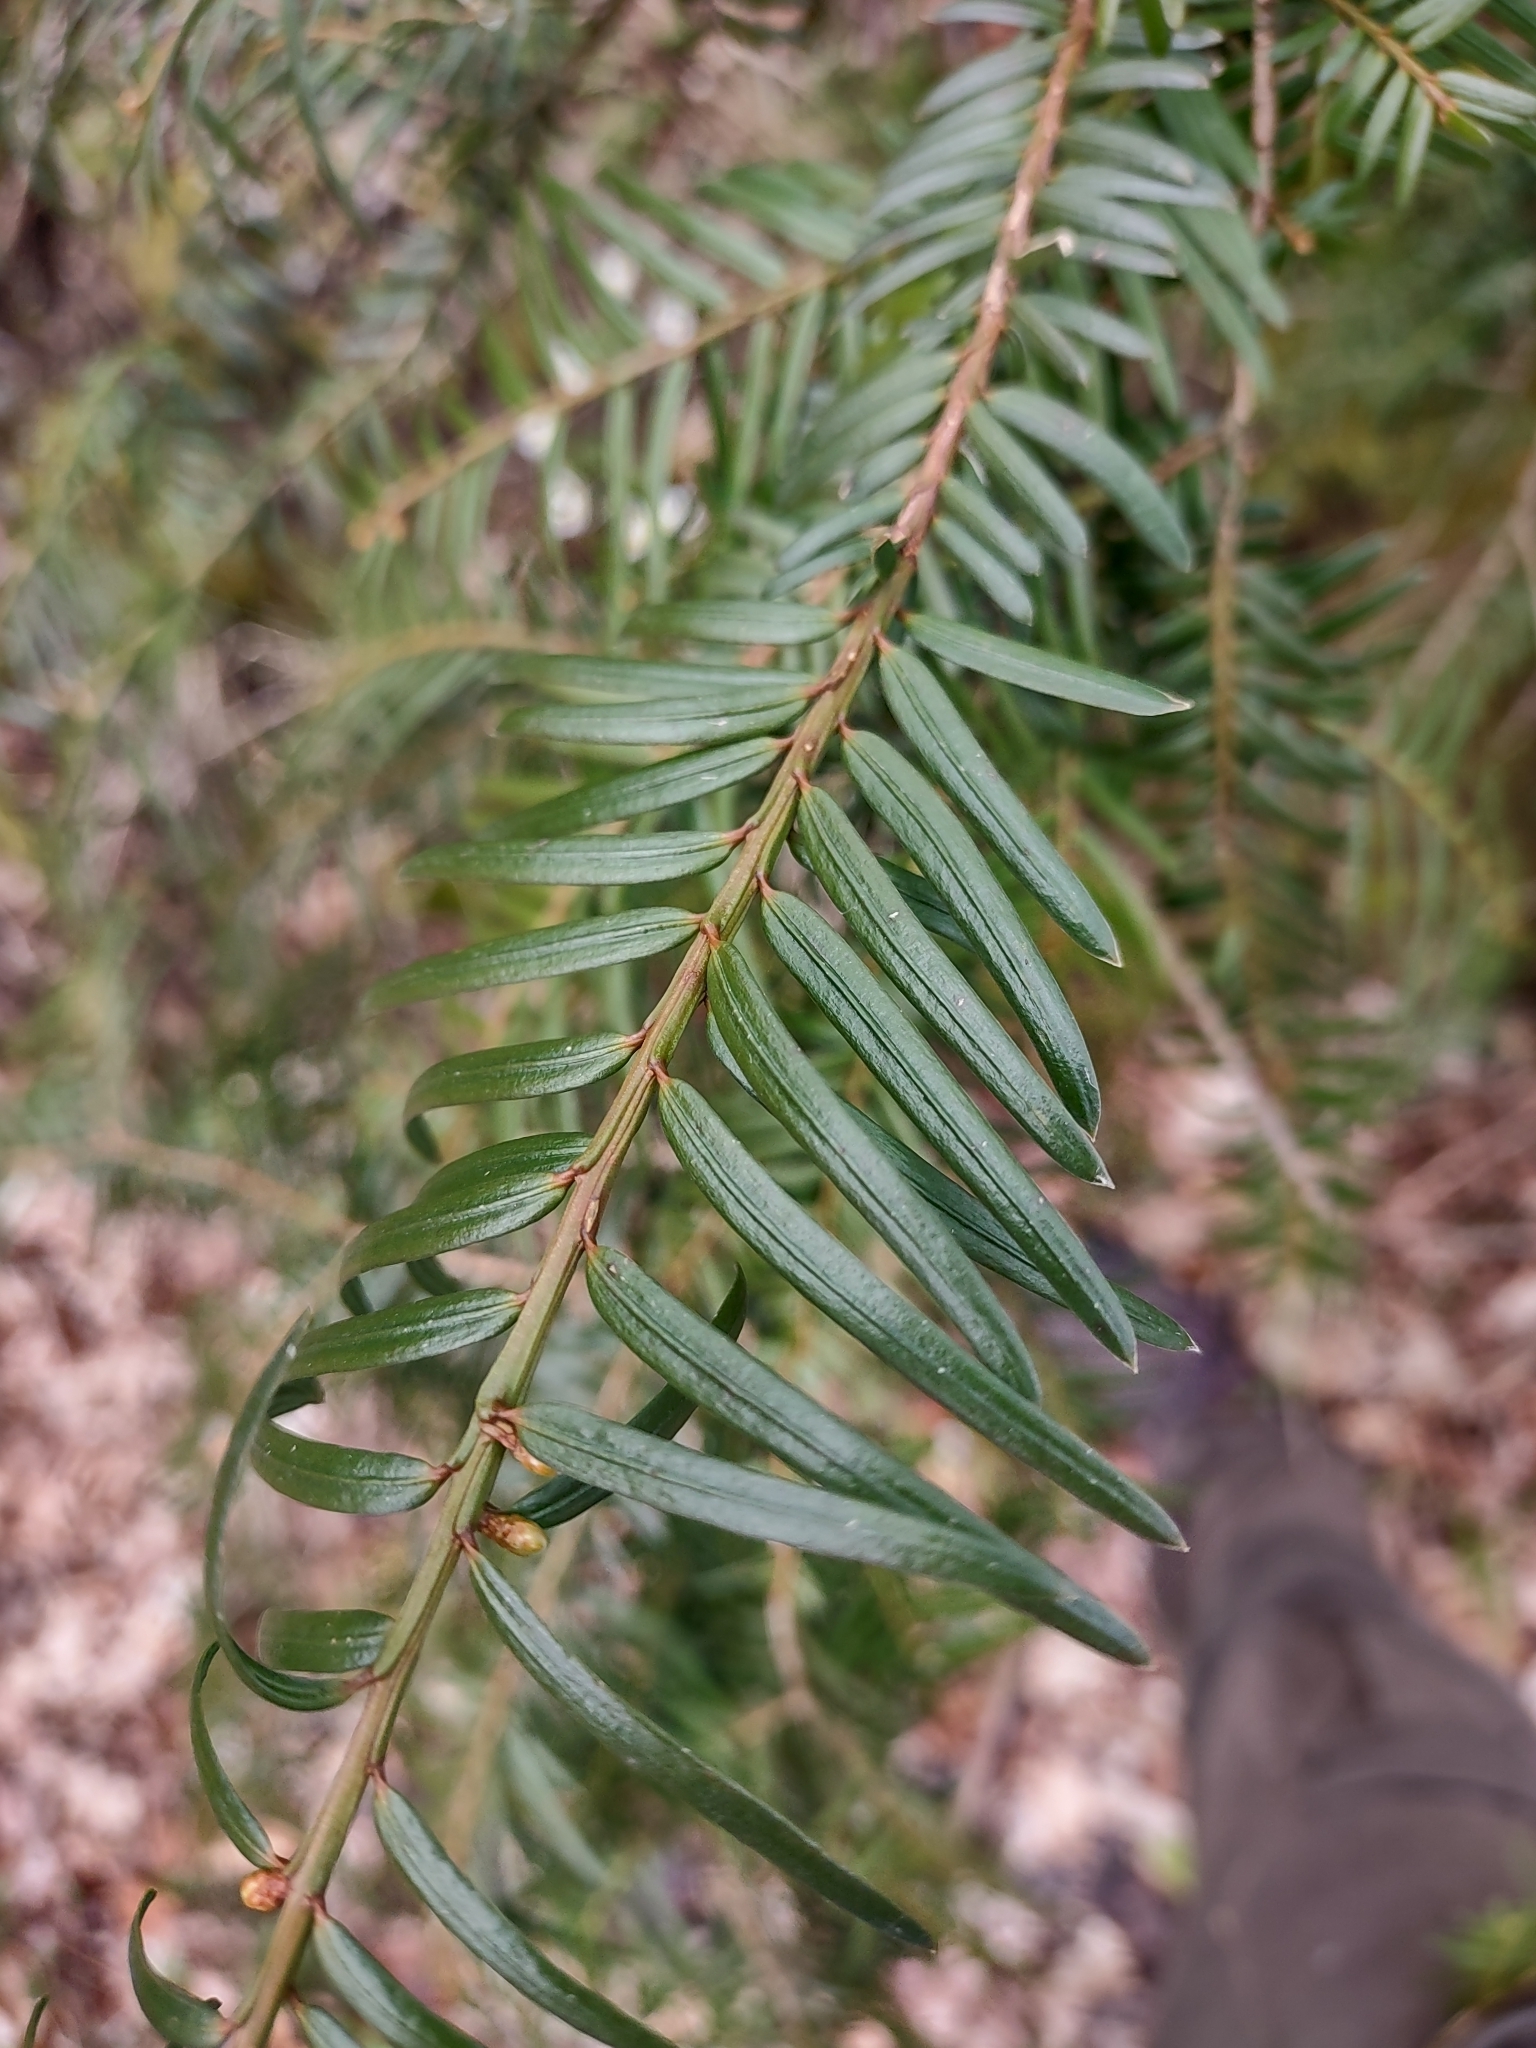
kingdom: Plantae
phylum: Tracheophyta
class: Pinopsida
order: Pinales
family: Taxaceae
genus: Taxus
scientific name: Taxus baccata
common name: Yew
